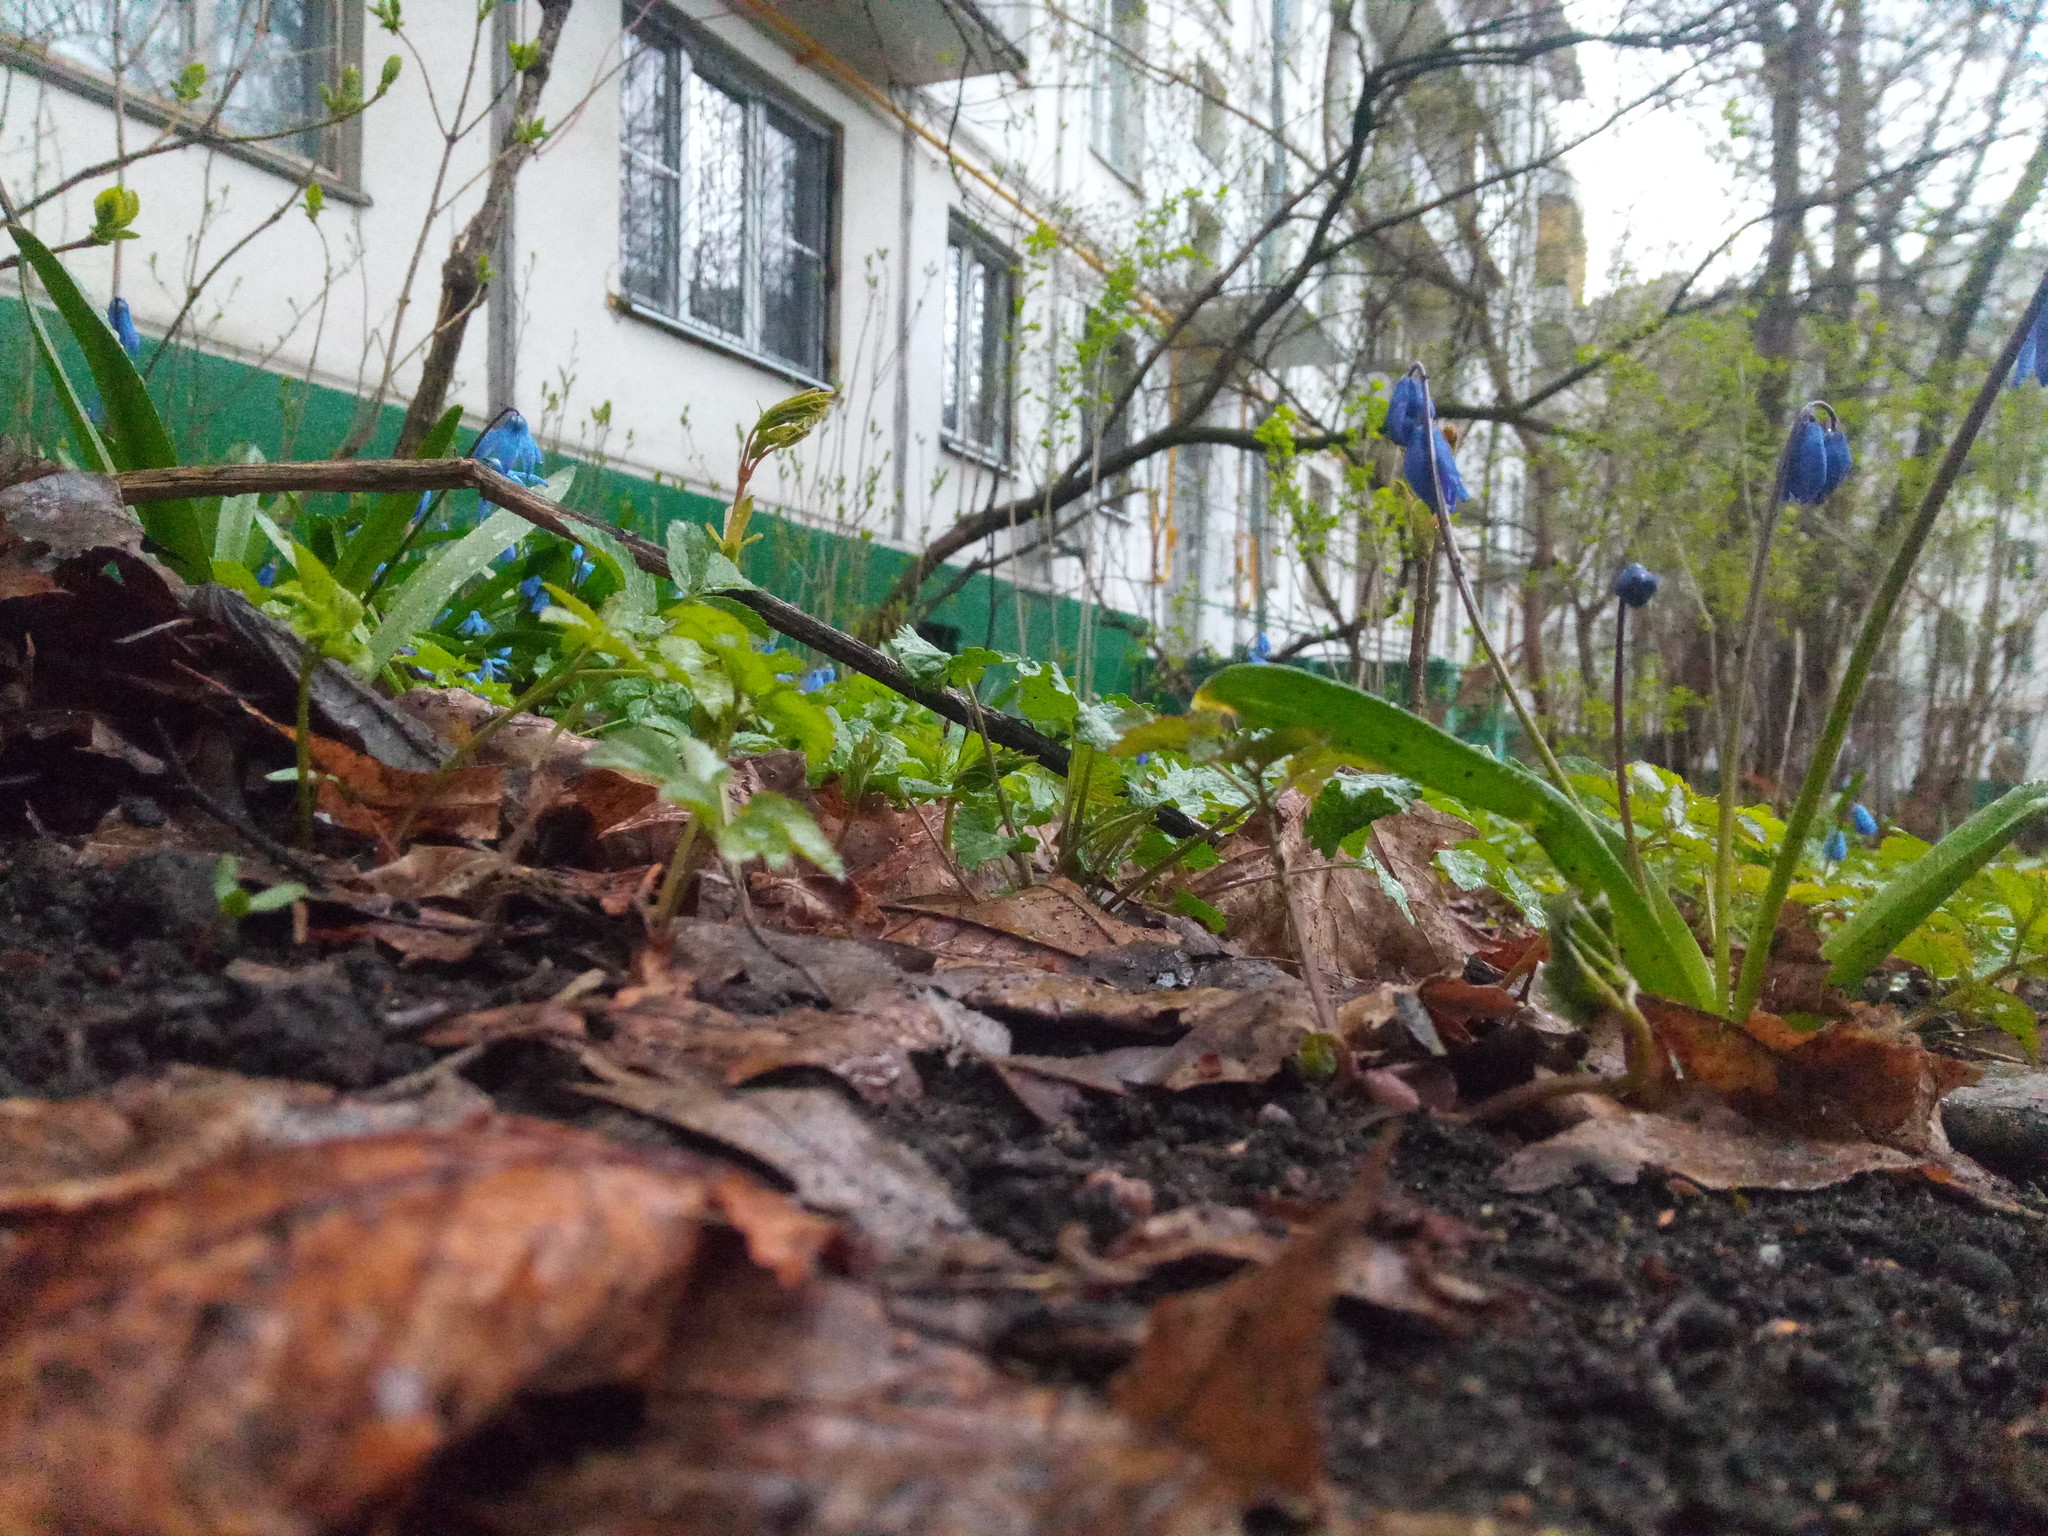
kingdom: Plantae
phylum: Tracheophyta
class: Liliopsida
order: Asparagales
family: Asparagaceae
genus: Scilla
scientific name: Scilla siberica
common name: Siberian squill
